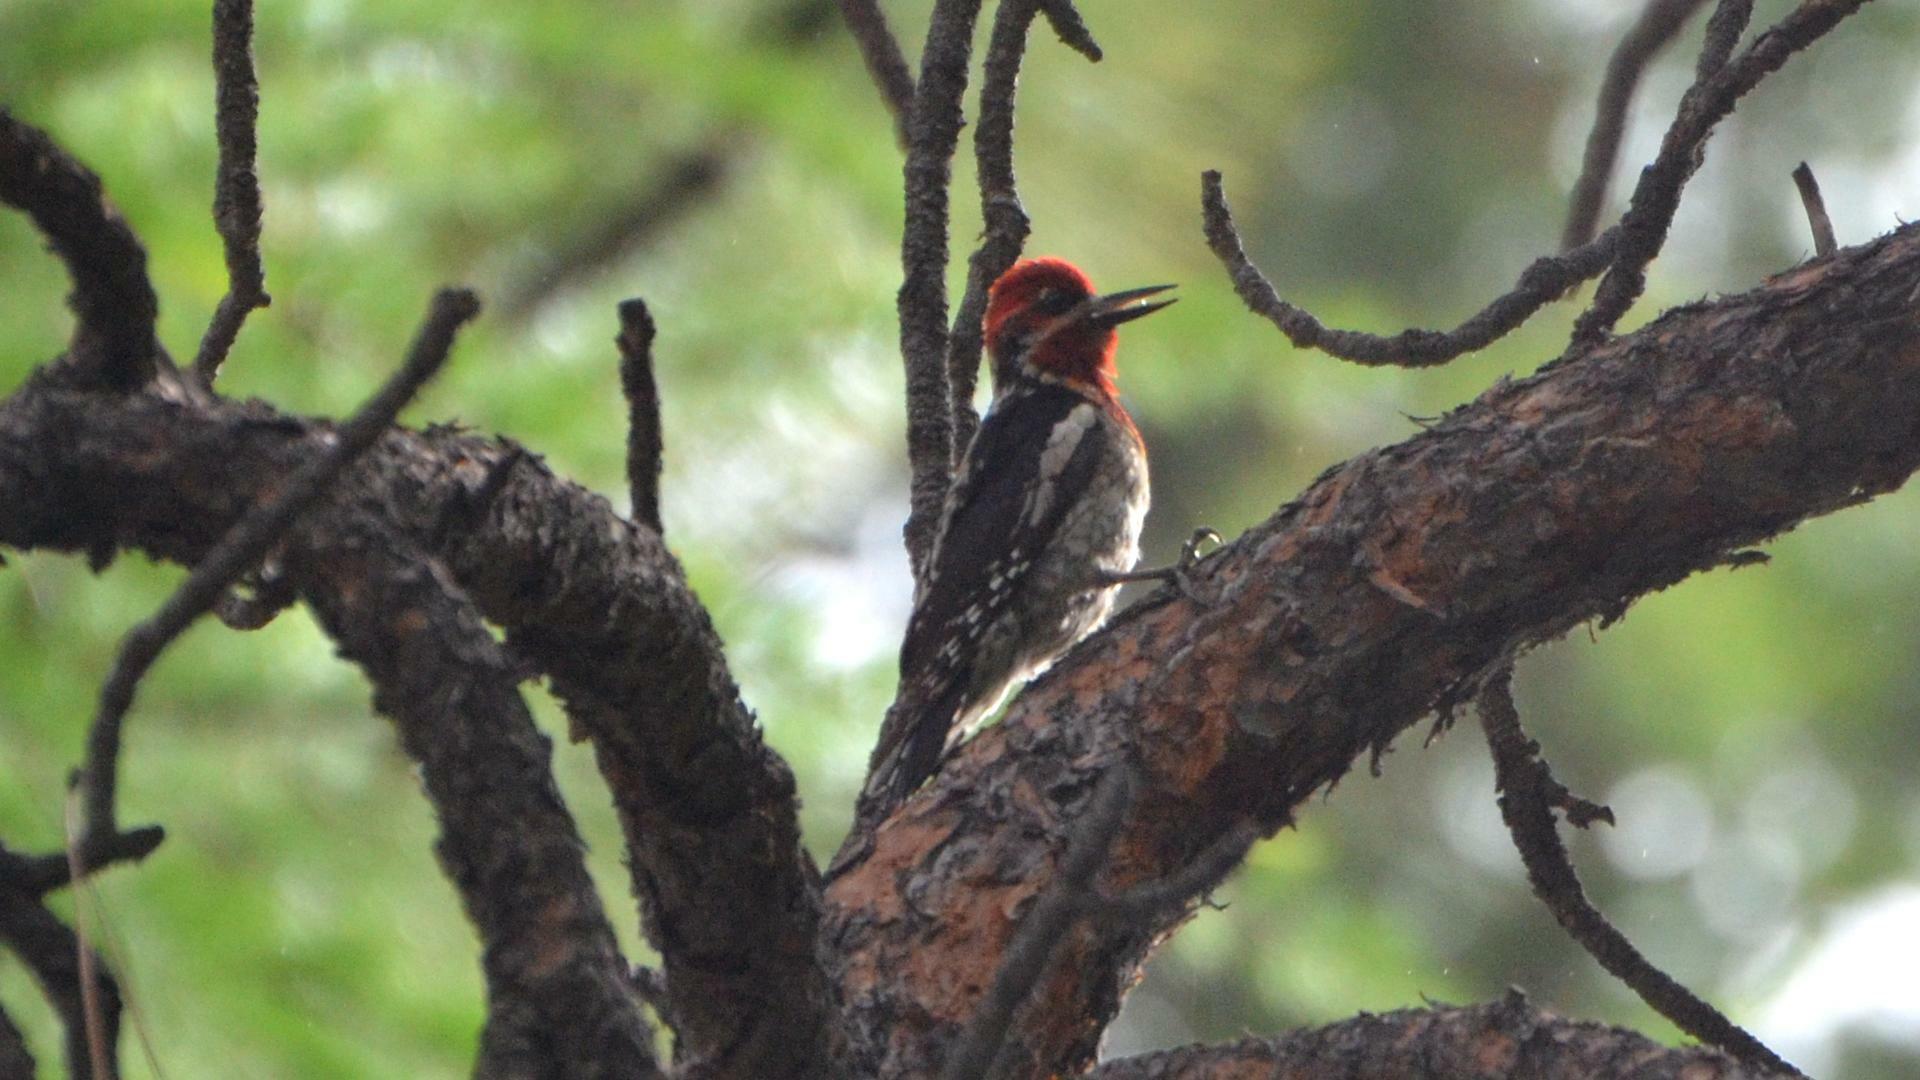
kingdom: Animalia
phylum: Chordata
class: Aves
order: Piciformes
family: Picidae
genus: Sphyrapicus
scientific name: Sphyrapicus
